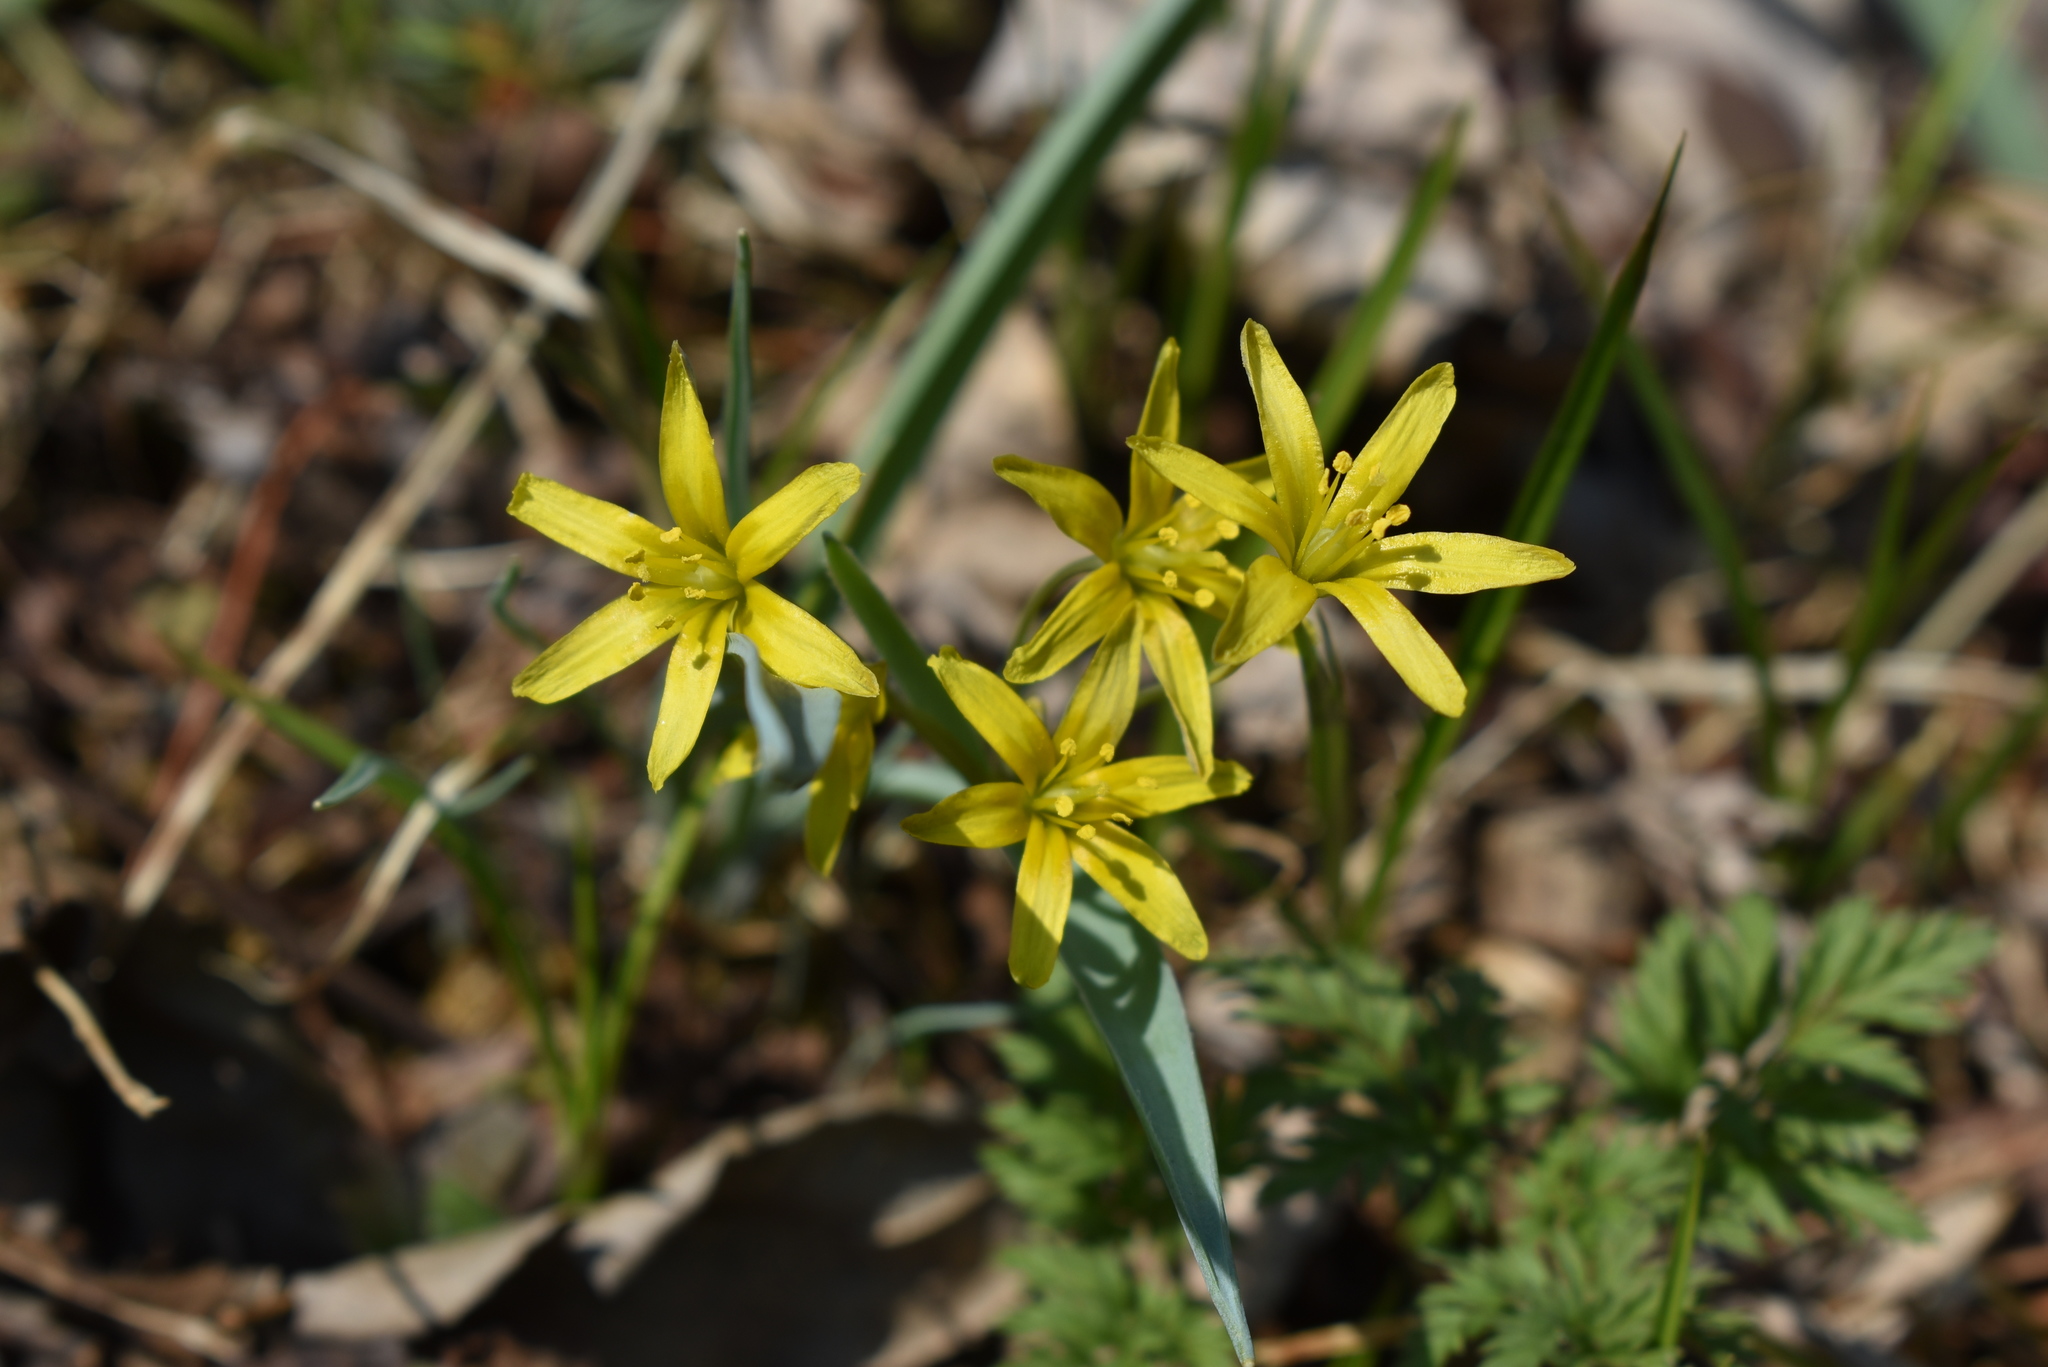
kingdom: Plantae
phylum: Tracheophyta
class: Liliopsida
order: Liliales
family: Liliaceae
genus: Gagea
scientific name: Gagea nakaiana
